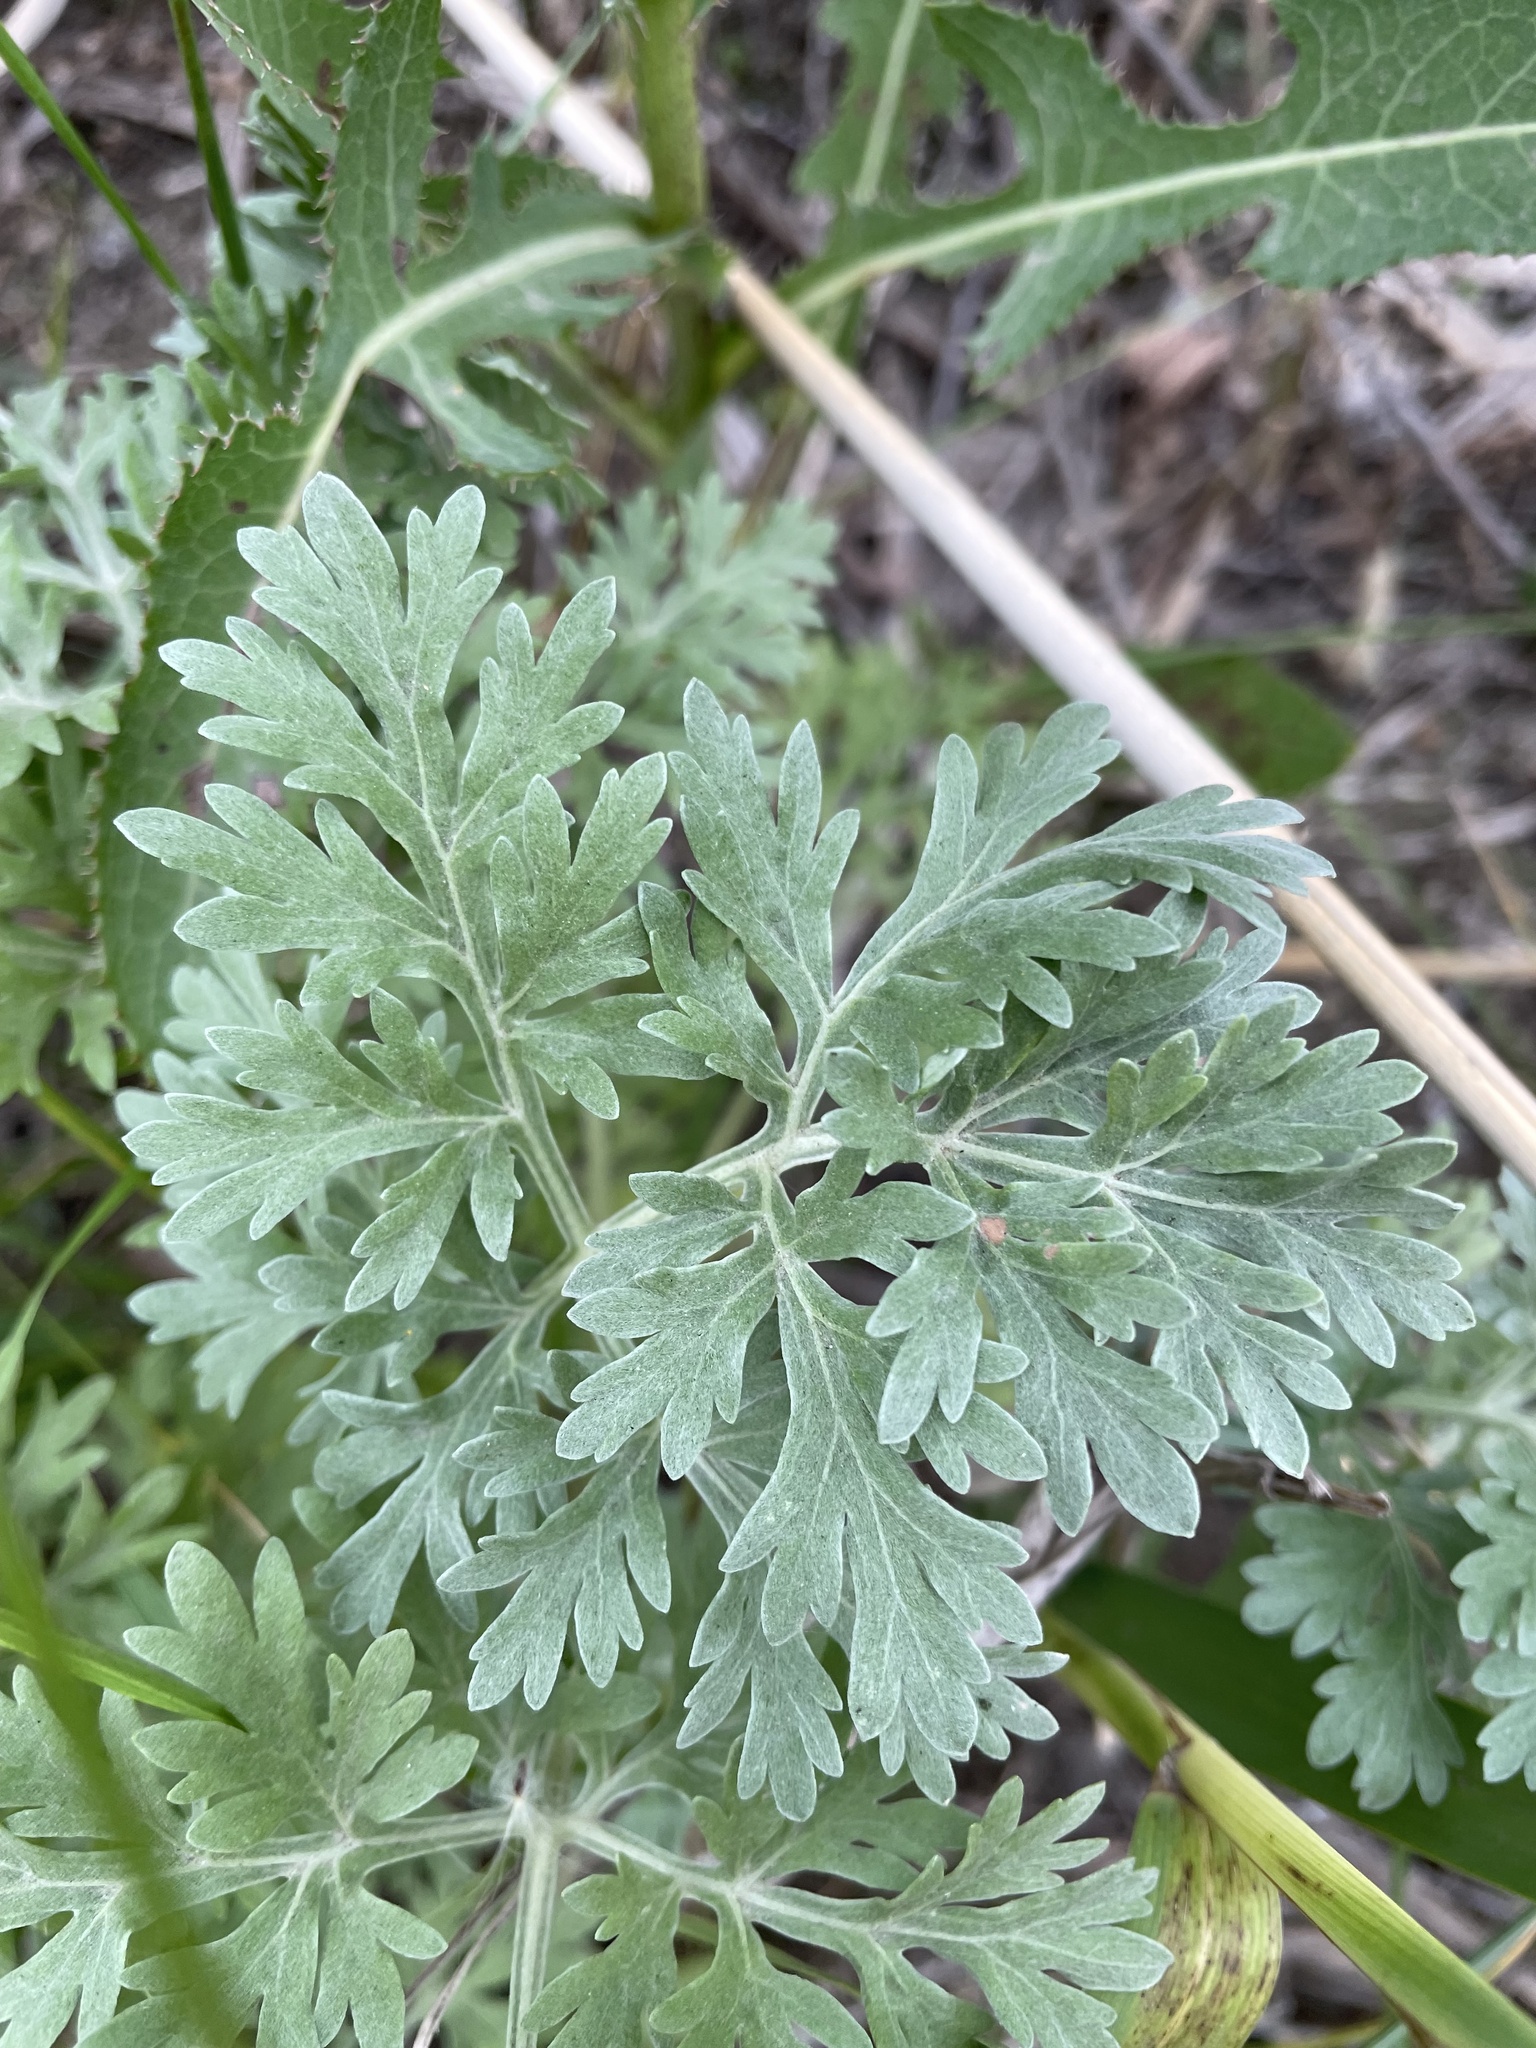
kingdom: Plantae
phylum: Tracheophyta
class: Magnoliopsida
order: Asterales
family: Asteraceae
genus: Artemisia
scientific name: Artemisia absinthium
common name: Wormwood
